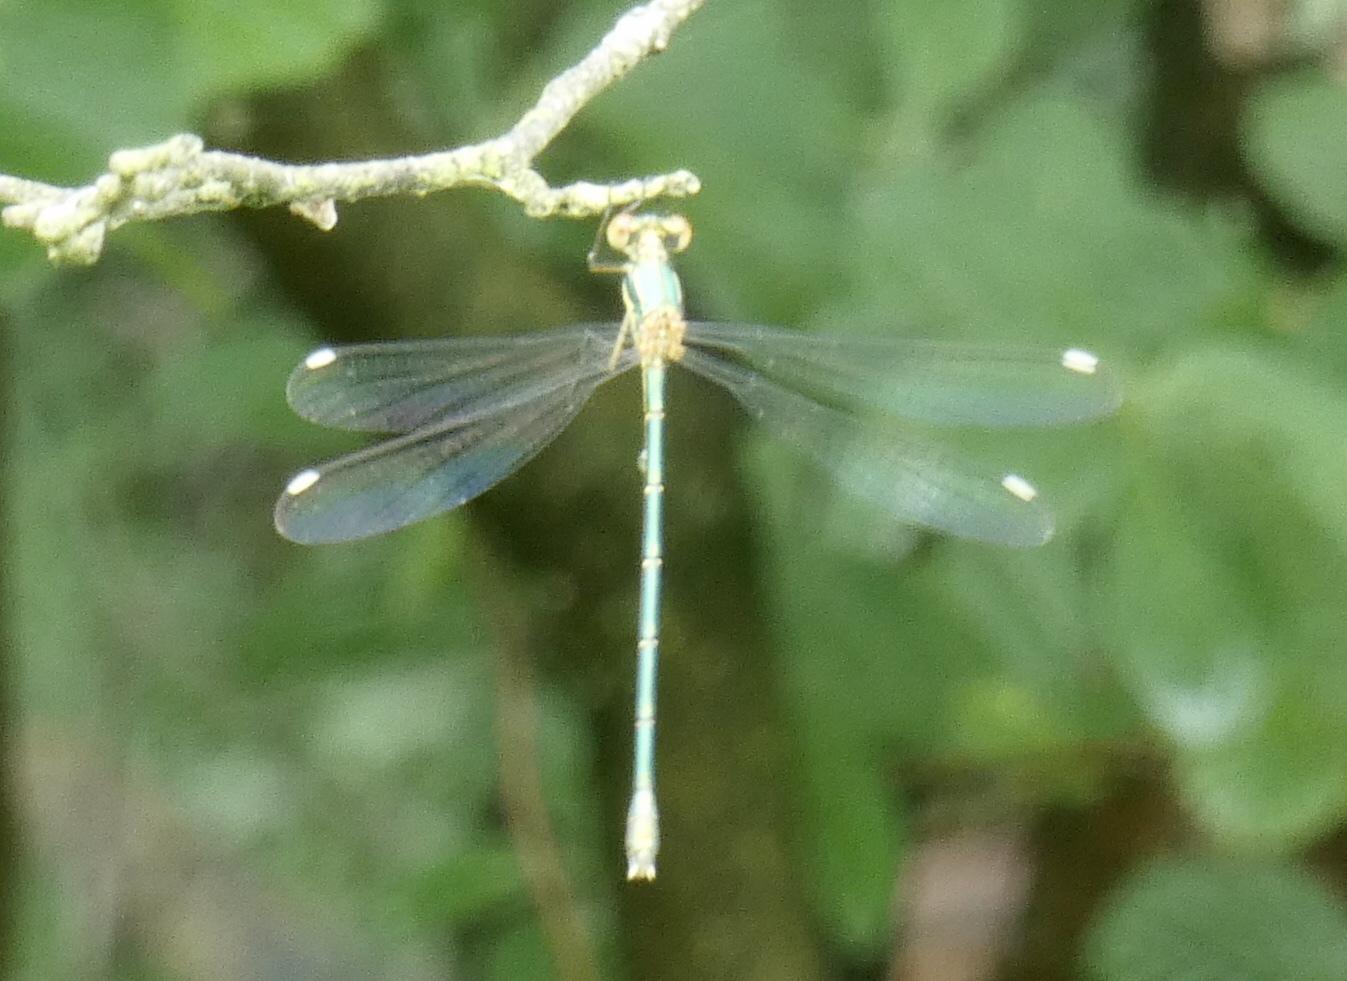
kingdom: Animalia
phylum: Arthropoda
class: Insecta
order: Odonata
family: Lestidae
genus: Chalcolestes
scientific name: Chalcolestes viridis
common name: Green emerald damselfly
